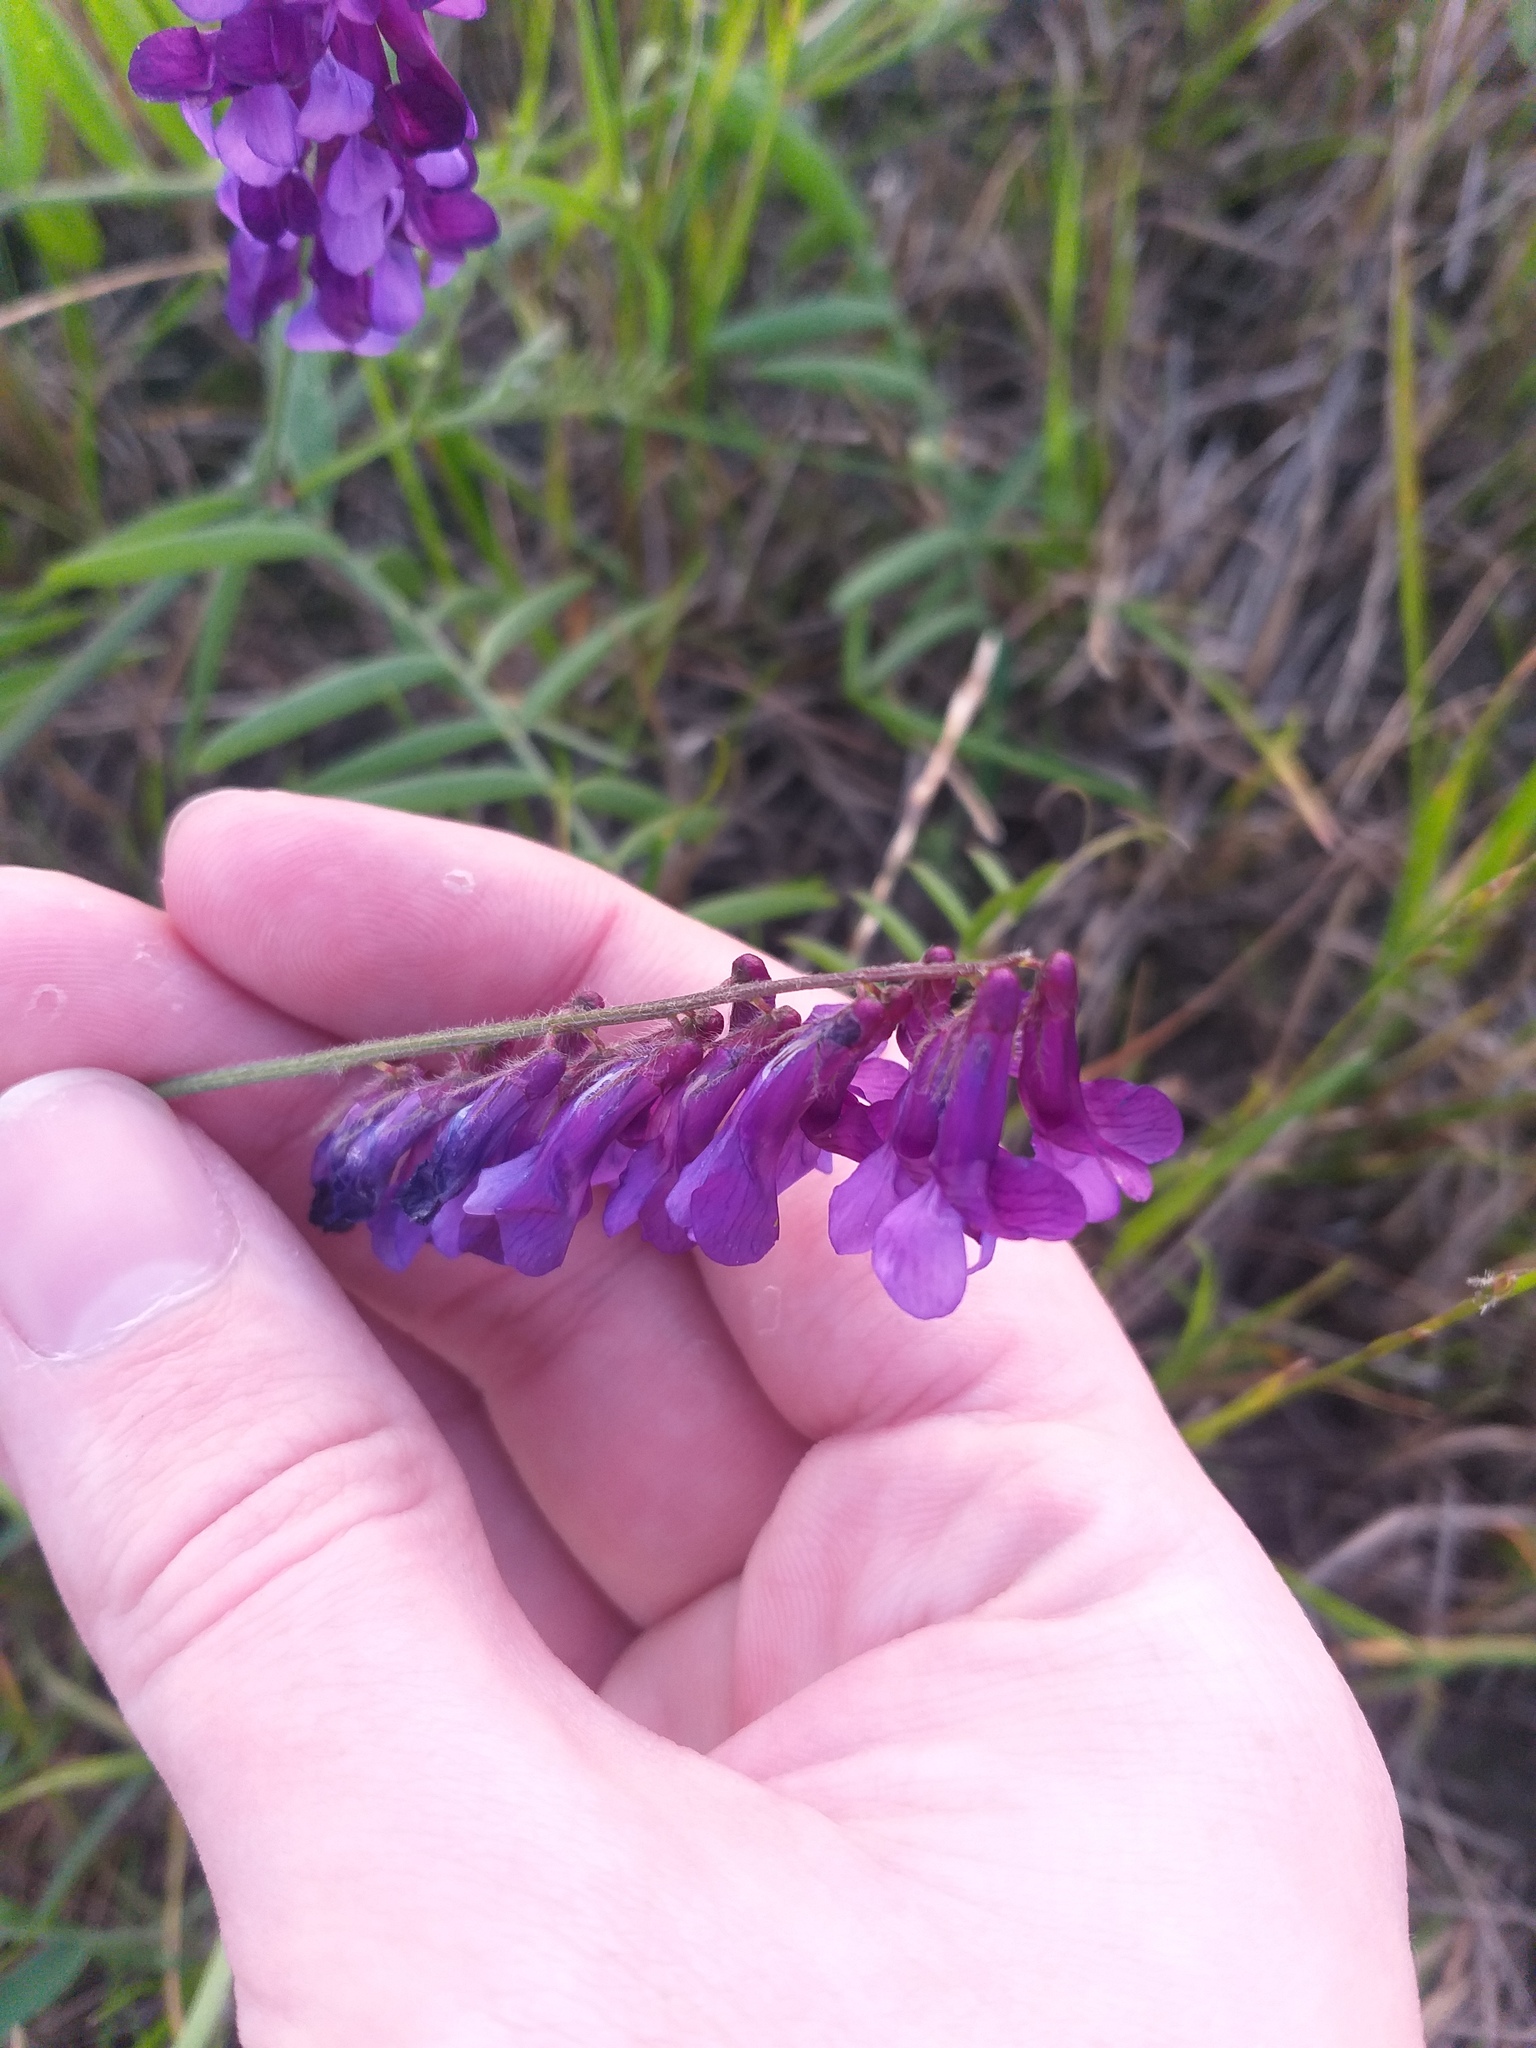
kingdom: Plantae
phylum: Tracheophyta
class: Magnoliopsida
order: Fabales
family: Fabaceae
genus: Vicia
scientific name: Vicia villosa
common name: Fodder vetch
